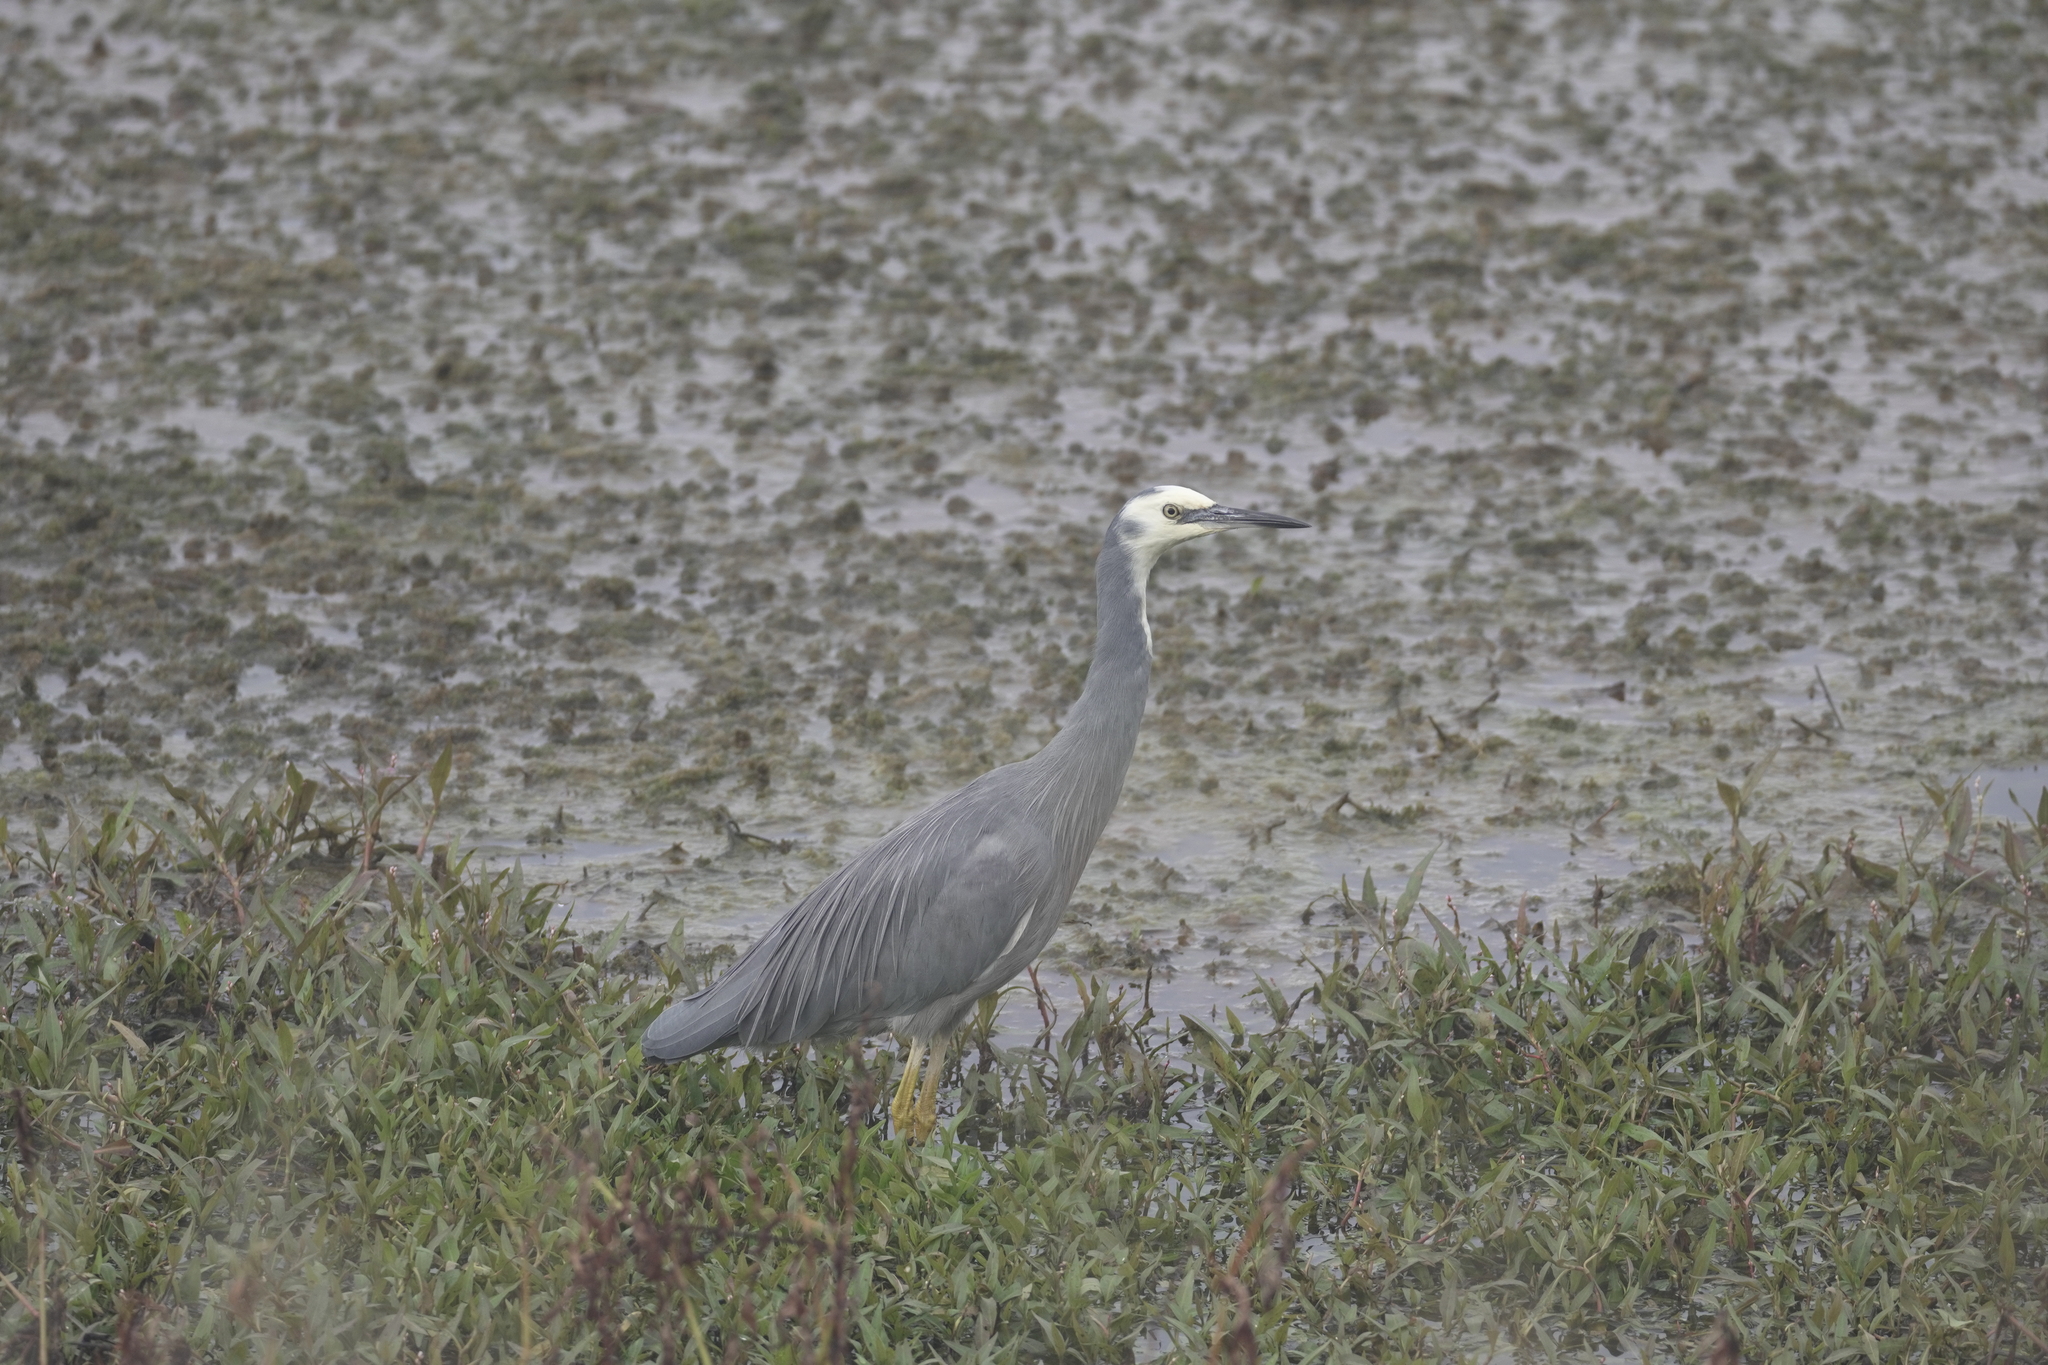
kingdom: Animalia
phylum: Chordata
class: Aves
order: Pelecaniformes
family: Ardeidae
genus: Egretta
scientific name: Egretta novaehollandiae
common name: White-faced heron
